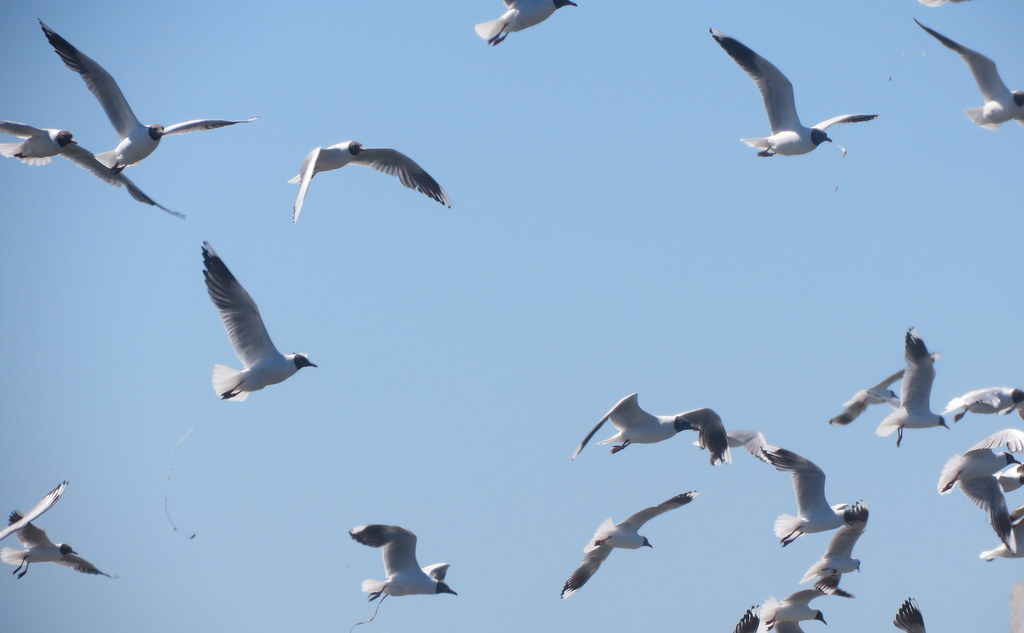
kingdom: Animalia
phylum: Chordata
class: Aves
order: Charadriiformes
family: Laridae
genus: Chroicocephalus
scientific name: Chroicocephalus maculipennis
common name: Brown-hooded gull
